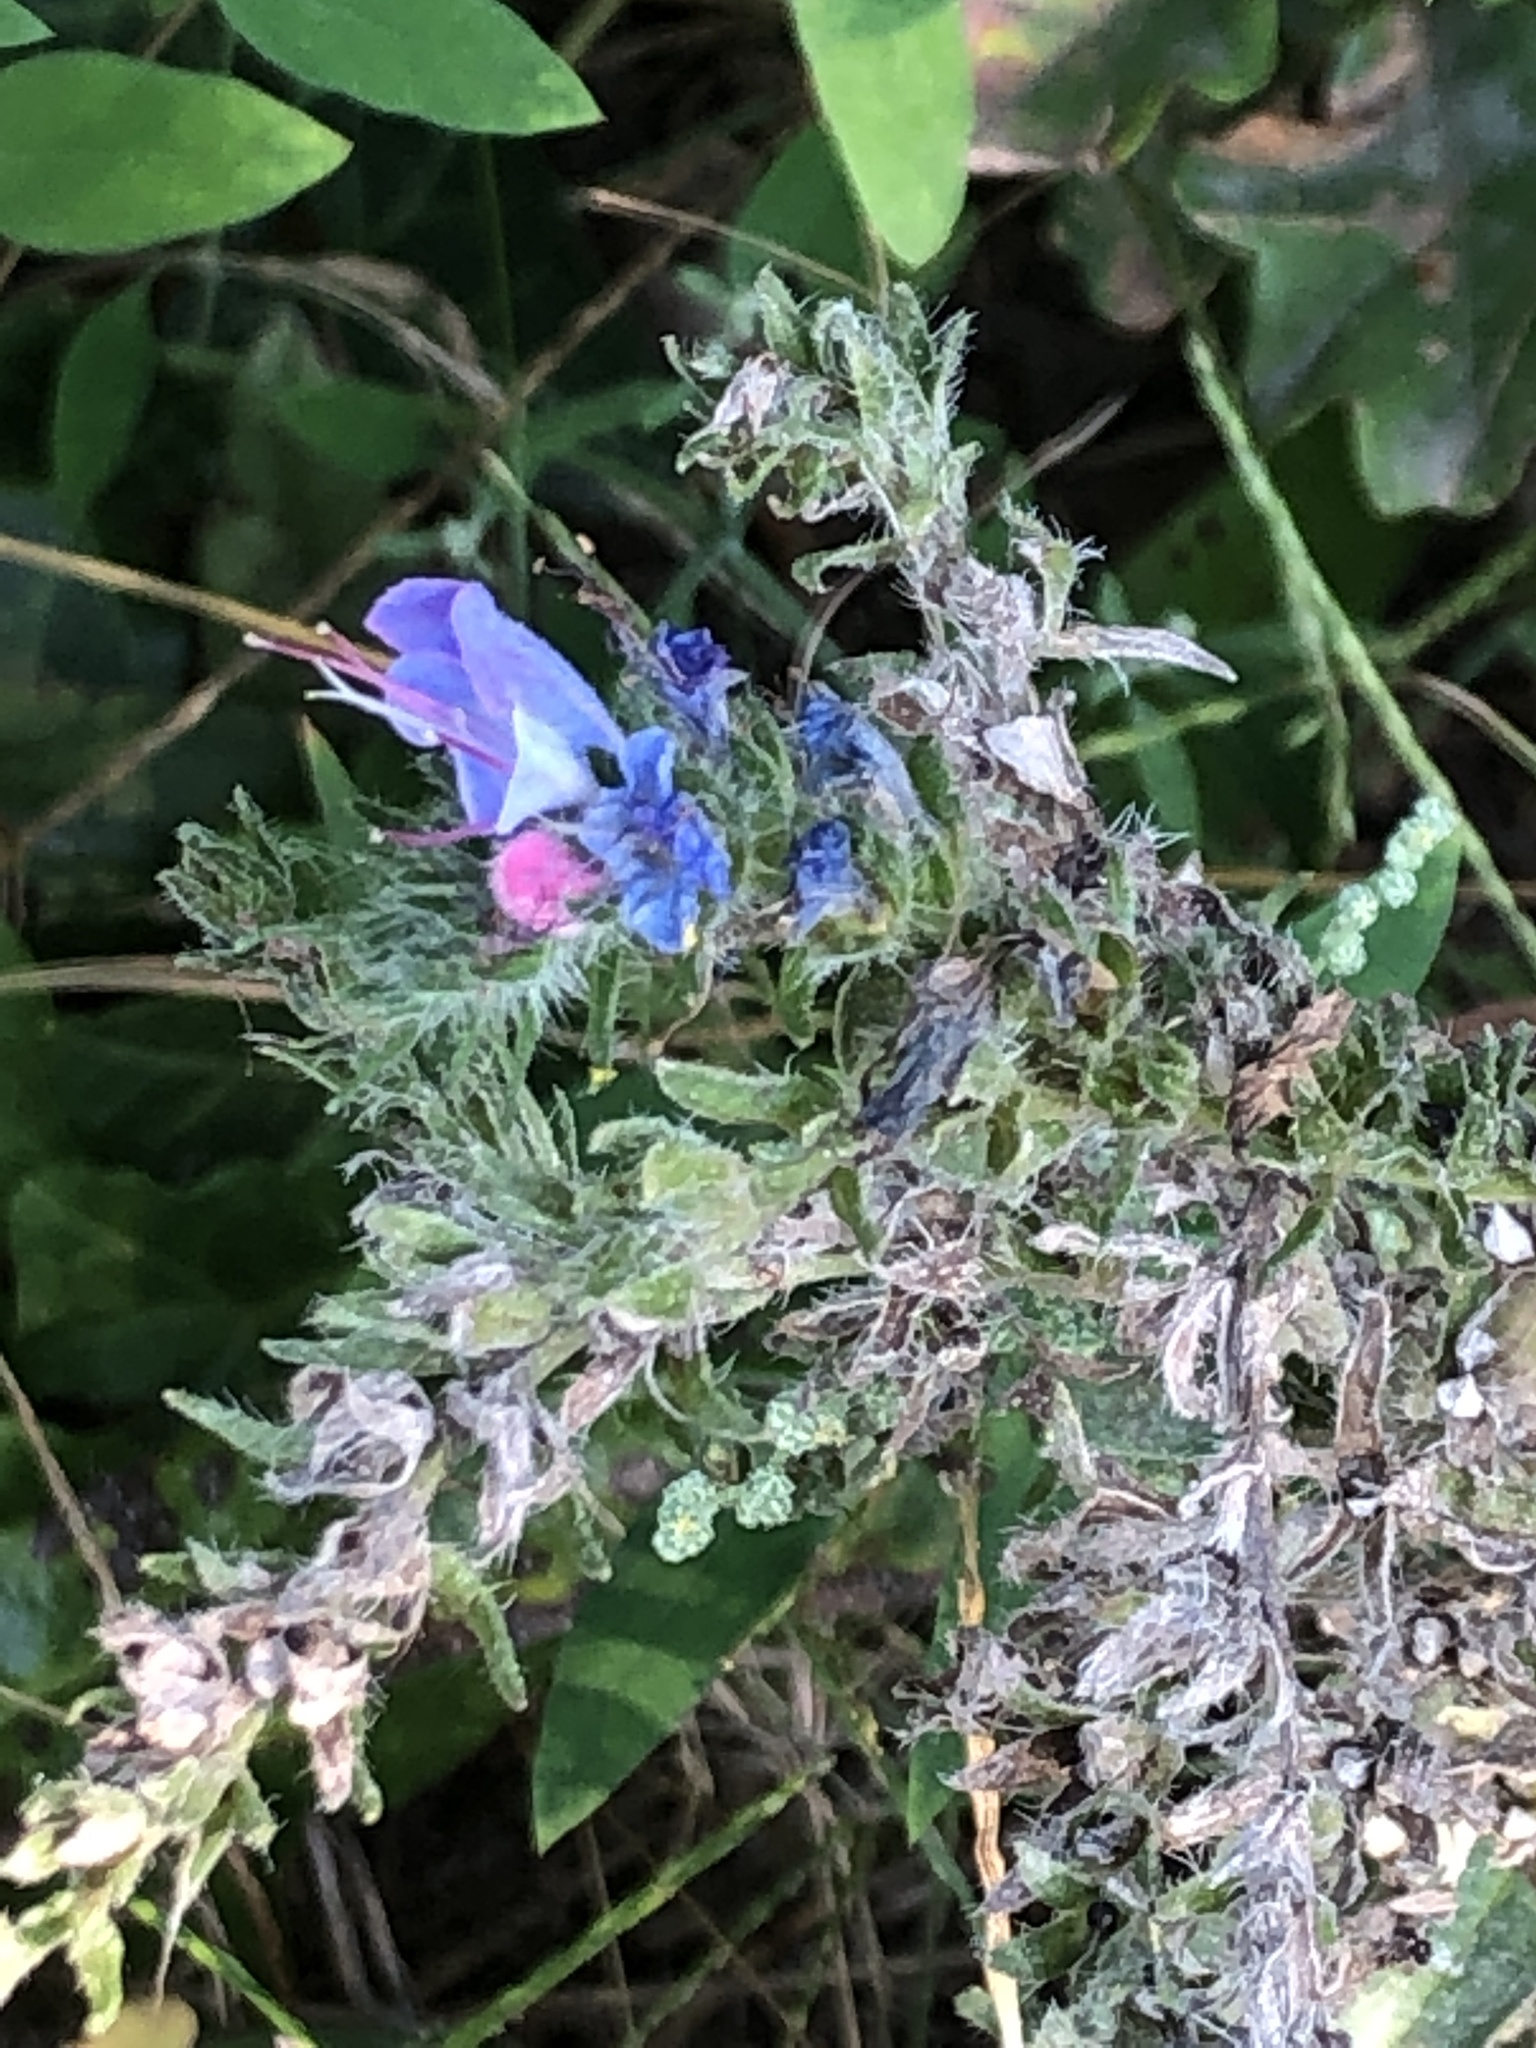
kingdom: Plantae
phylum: Tracheophyta
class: Magnoliopsida
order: Boraginales
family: Boraginaceae
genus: Echium
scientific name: Echium vulgare
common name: Common viper's bugloss
